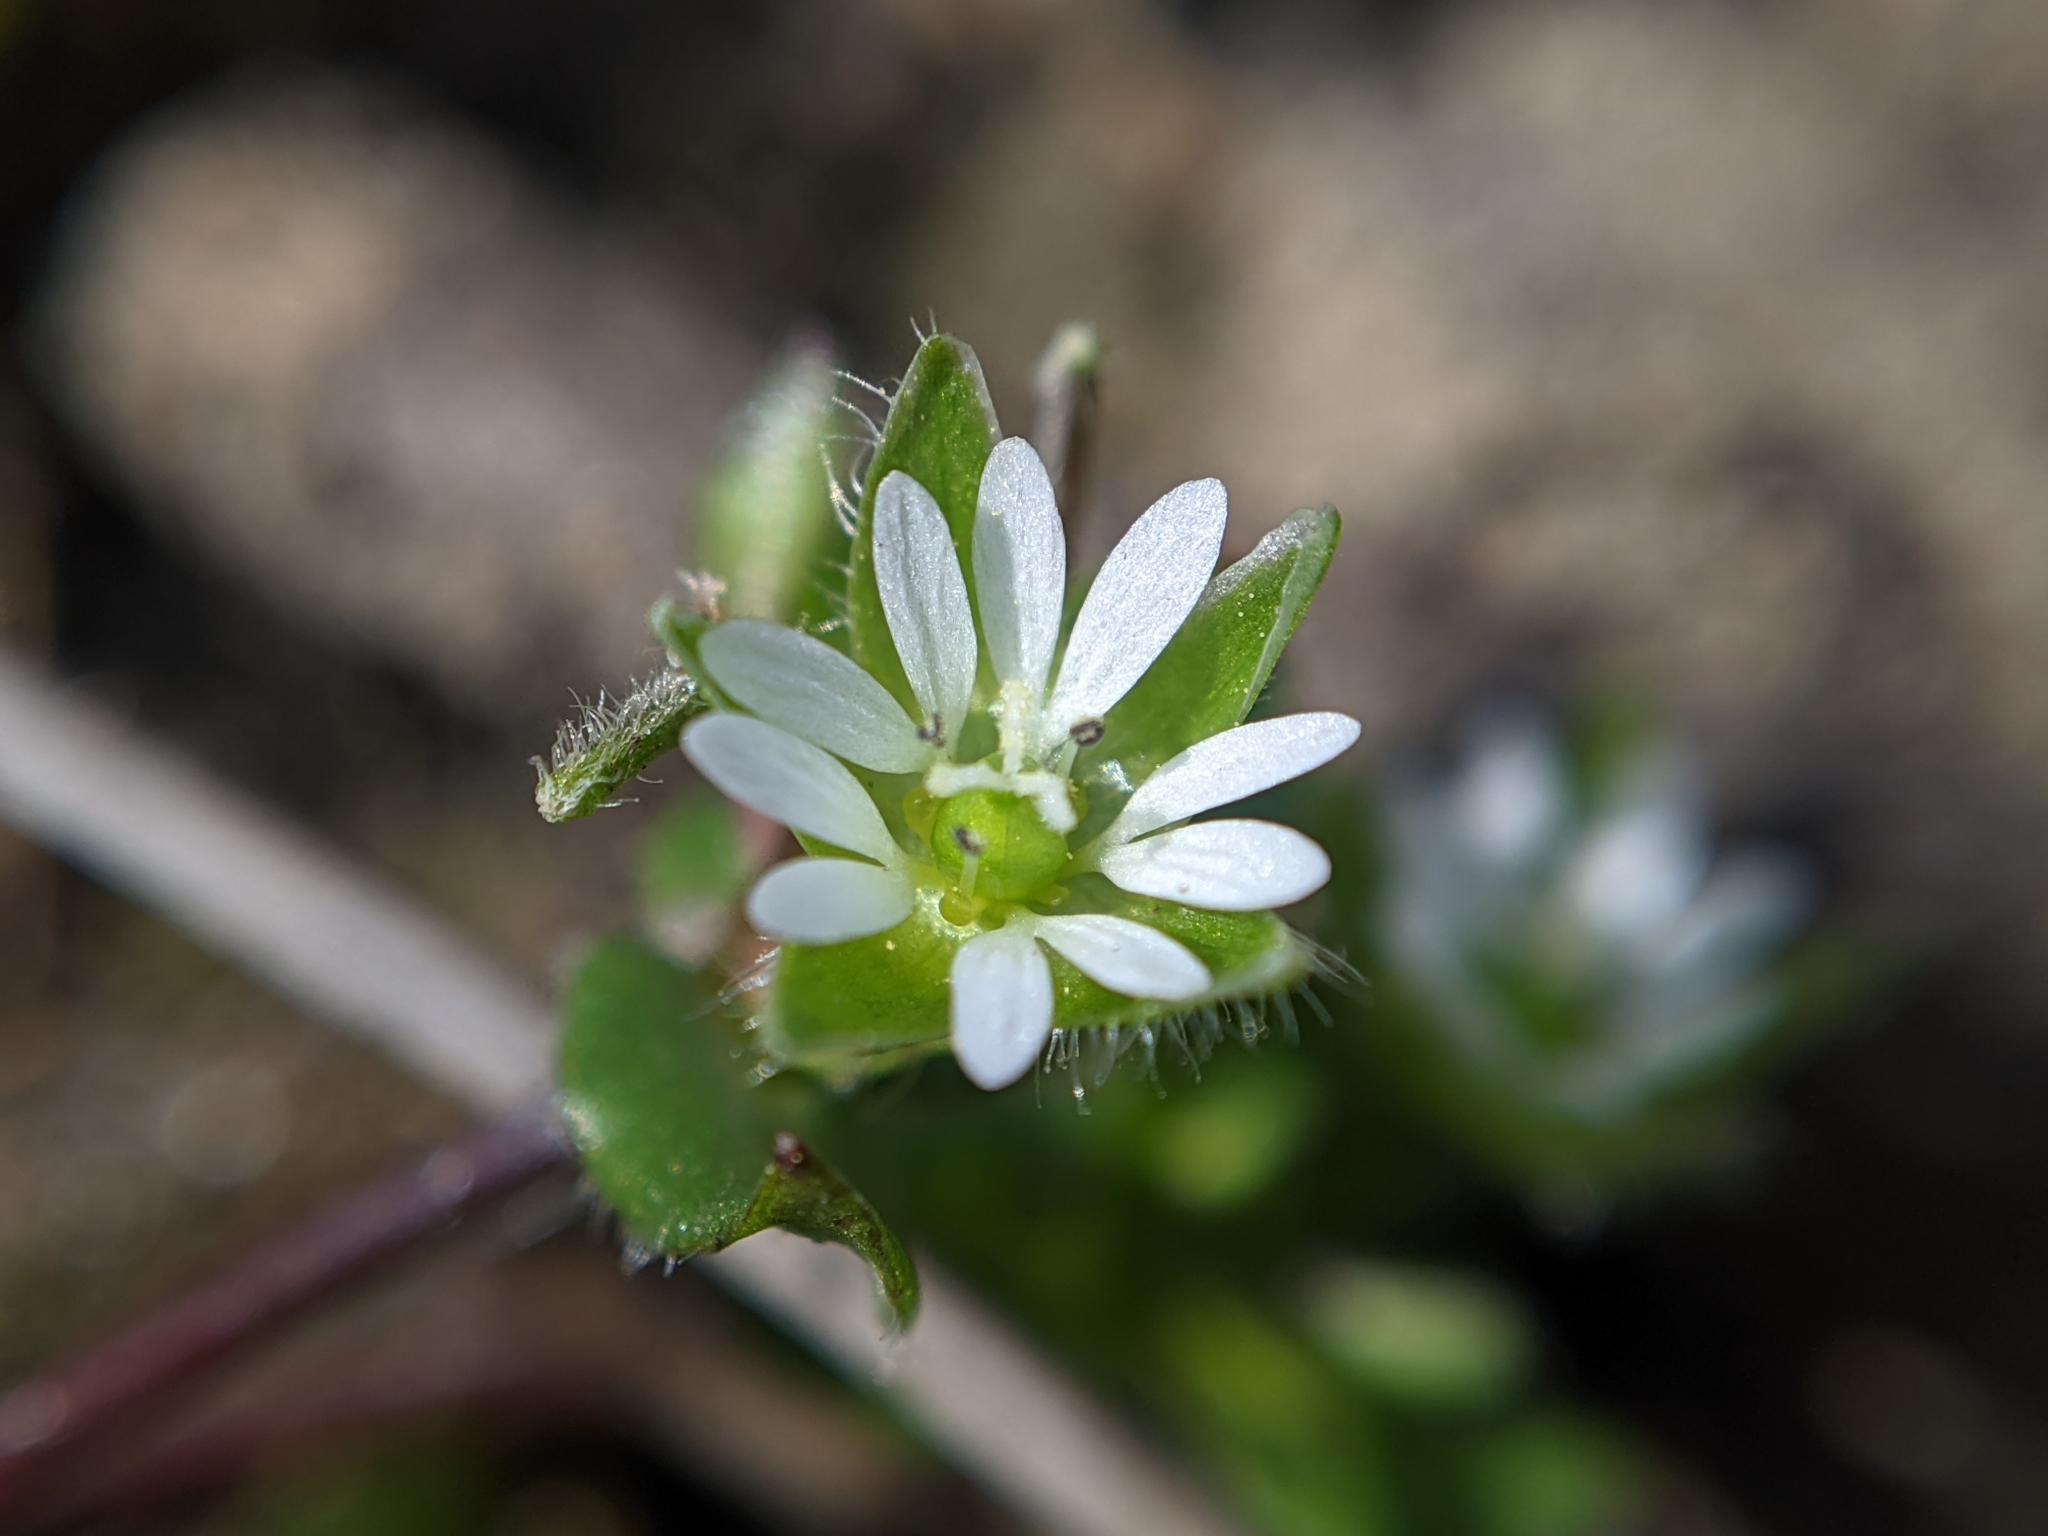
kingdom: Plantae
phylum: Tracheophyta
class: Magnoliopsida
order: Caryophyllales
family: Caryophyllaceae
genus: Stellaria
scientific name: Stellaria media
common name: Common chickweed
